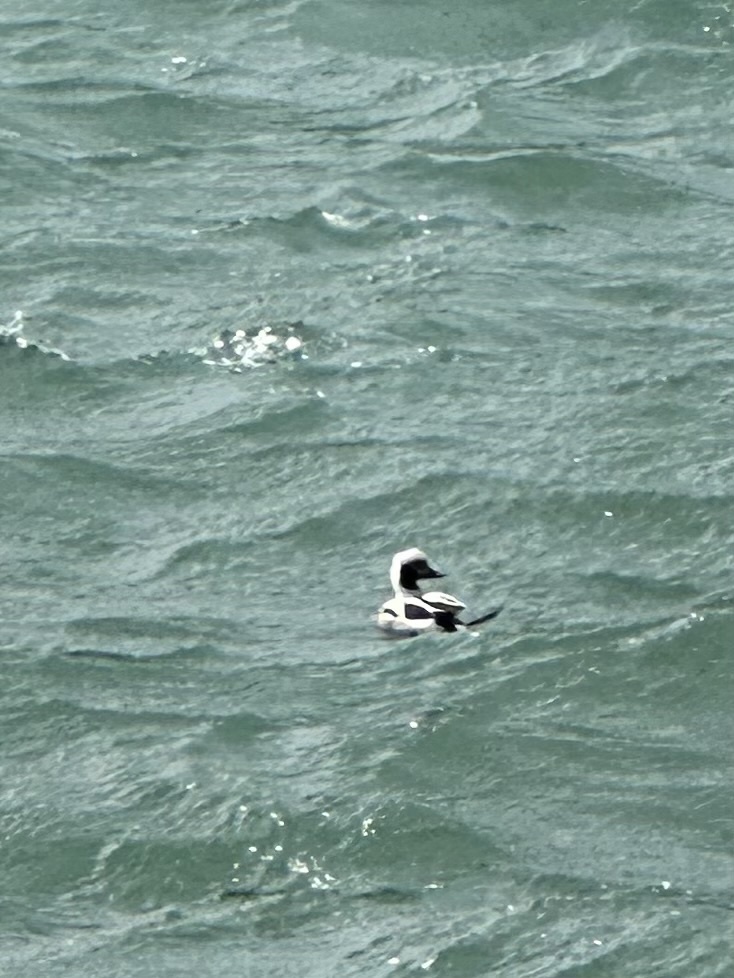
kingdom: Animalia
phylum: Chordata
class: Aves
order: Anseriformes
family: Anatidae
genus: Clangula
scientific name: Clangula hyemalis
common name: Long-tailed duck
